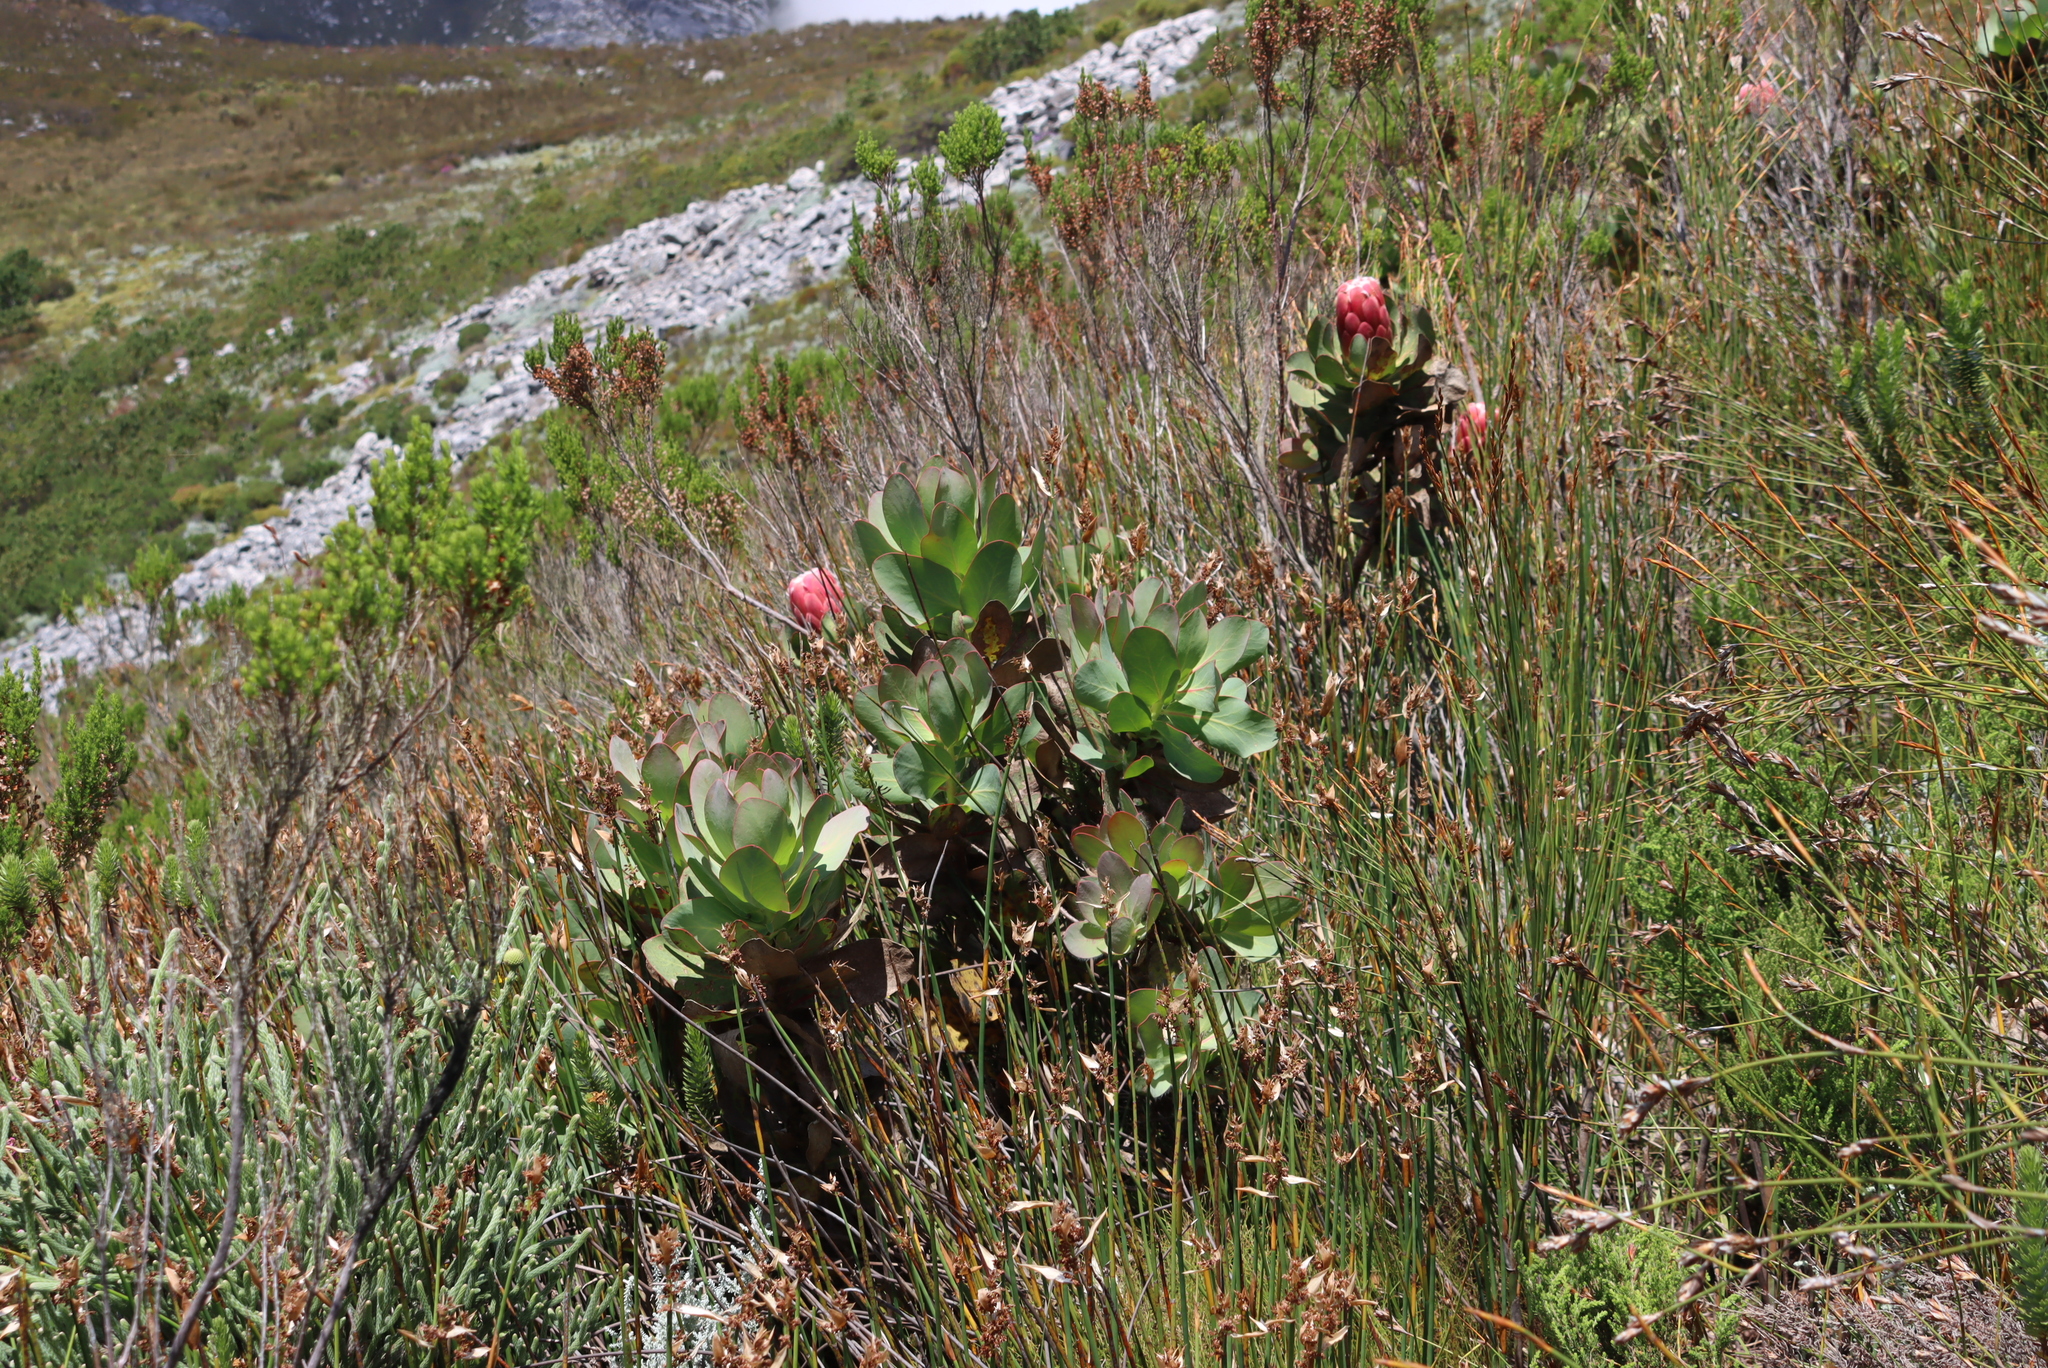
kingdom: Plantae
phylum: Tracheophyta
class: Magnoliopsida
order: Proteales
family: Proteaceae
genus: Protea
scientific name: Protea grandiceps
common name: Red sugarbush
